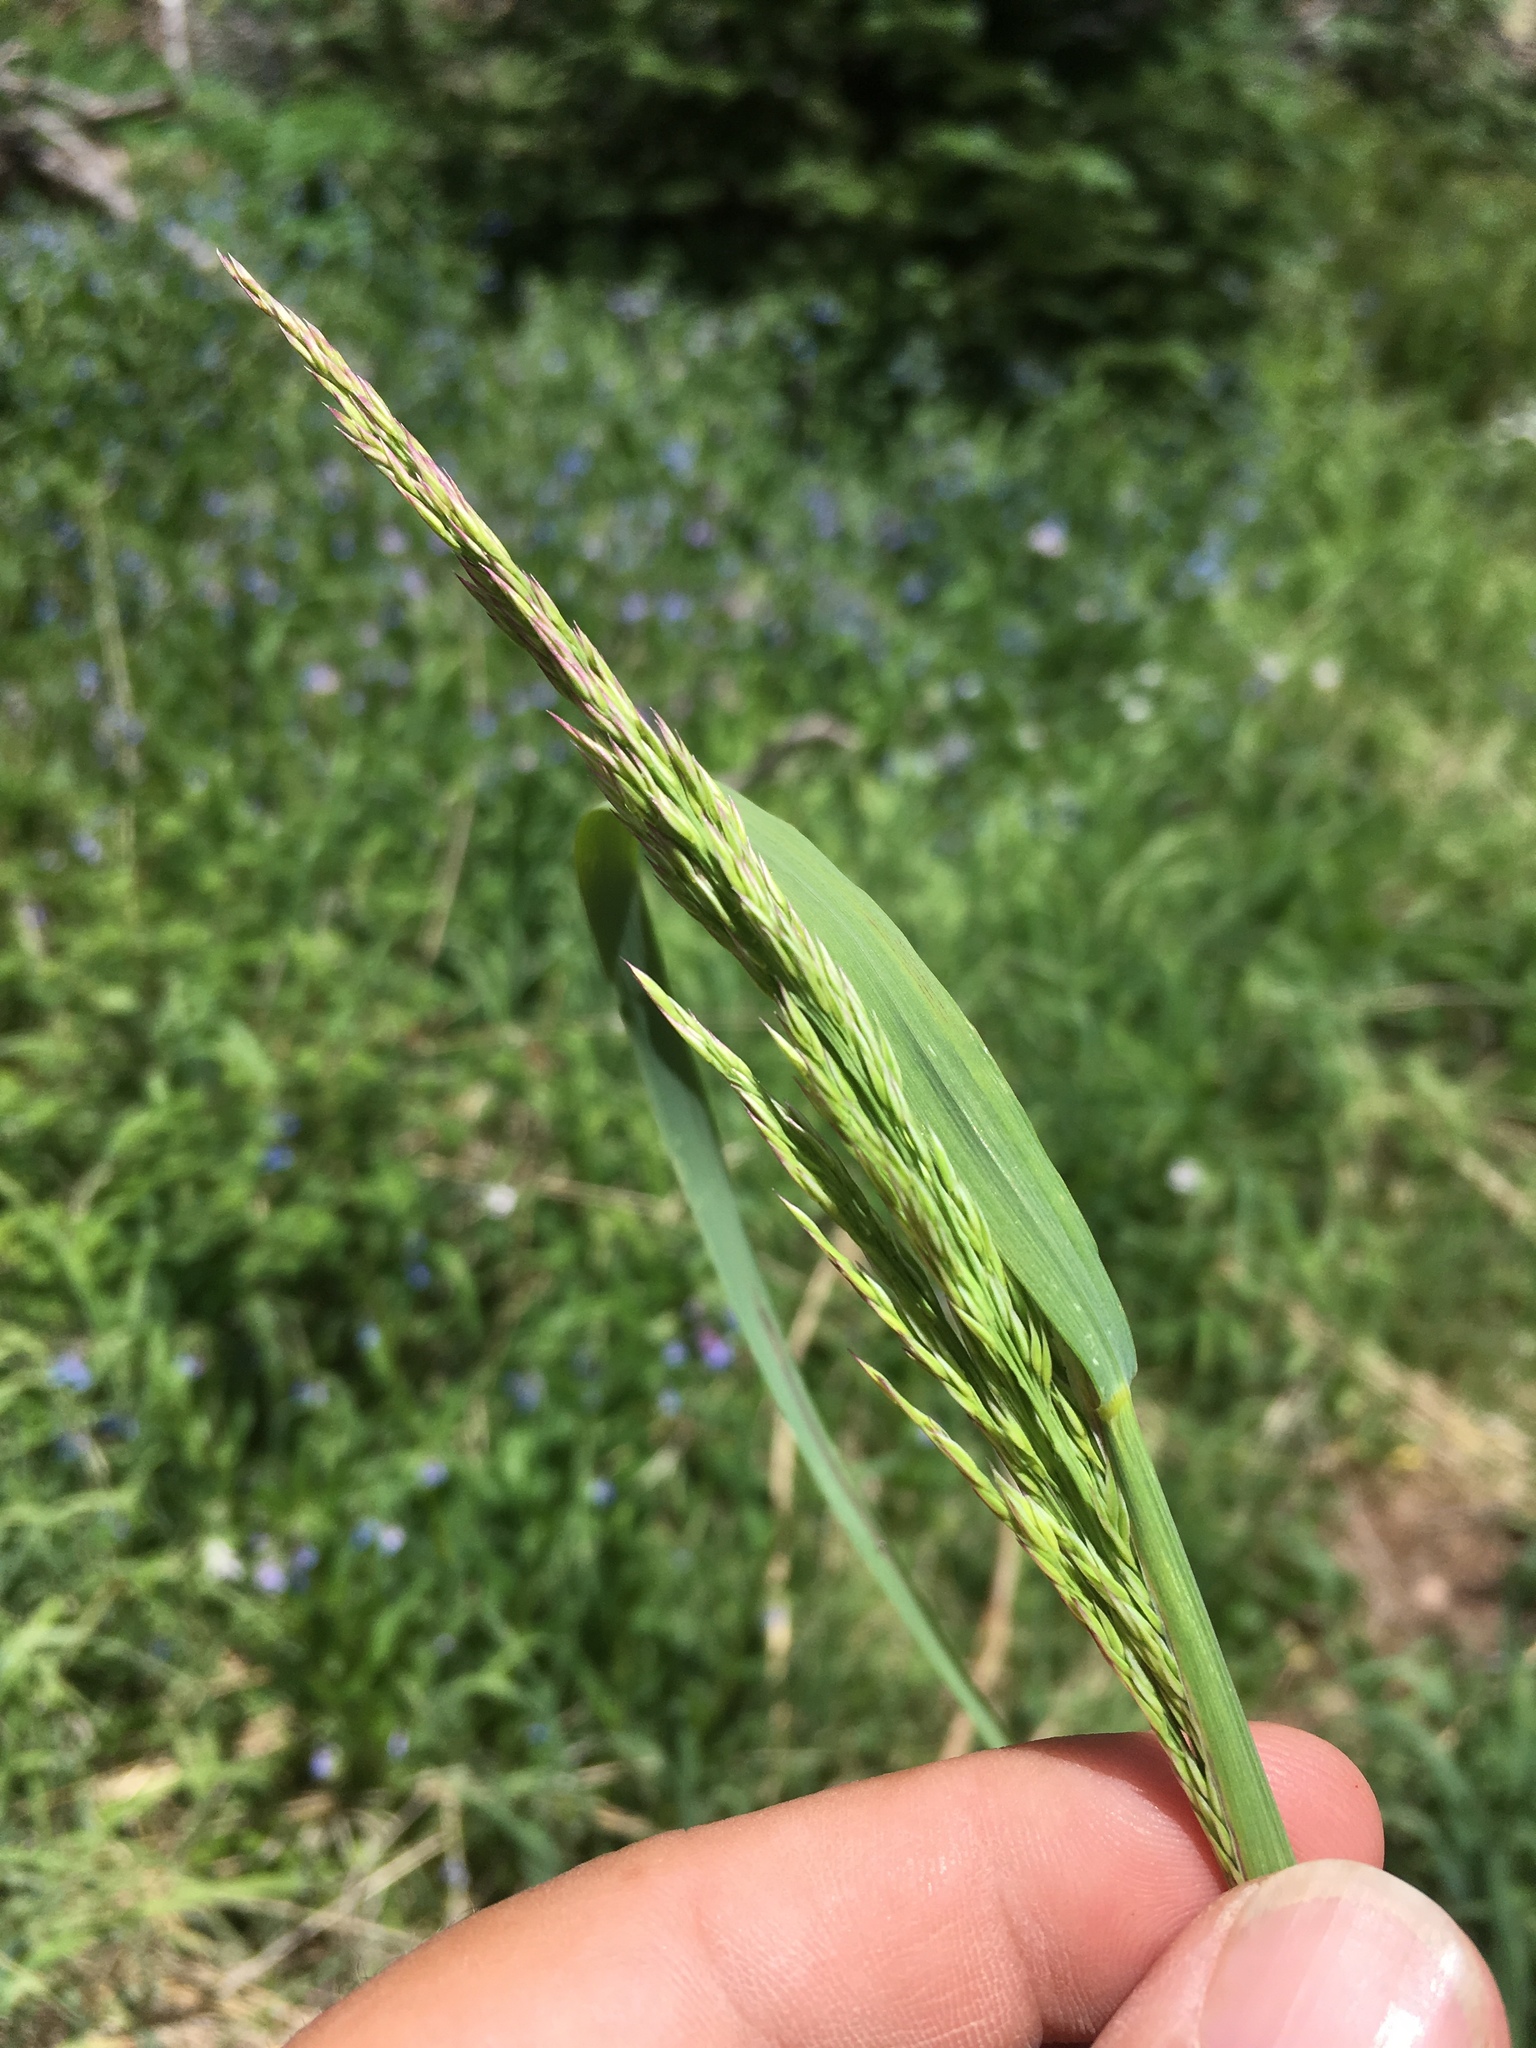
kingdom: Plantae
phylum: Tracheophyta
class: Liliopsida
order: Poales
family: Poaceae
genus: Calamagrostis
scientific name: Calamagrostis canadensis
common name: Canada bluejoint
